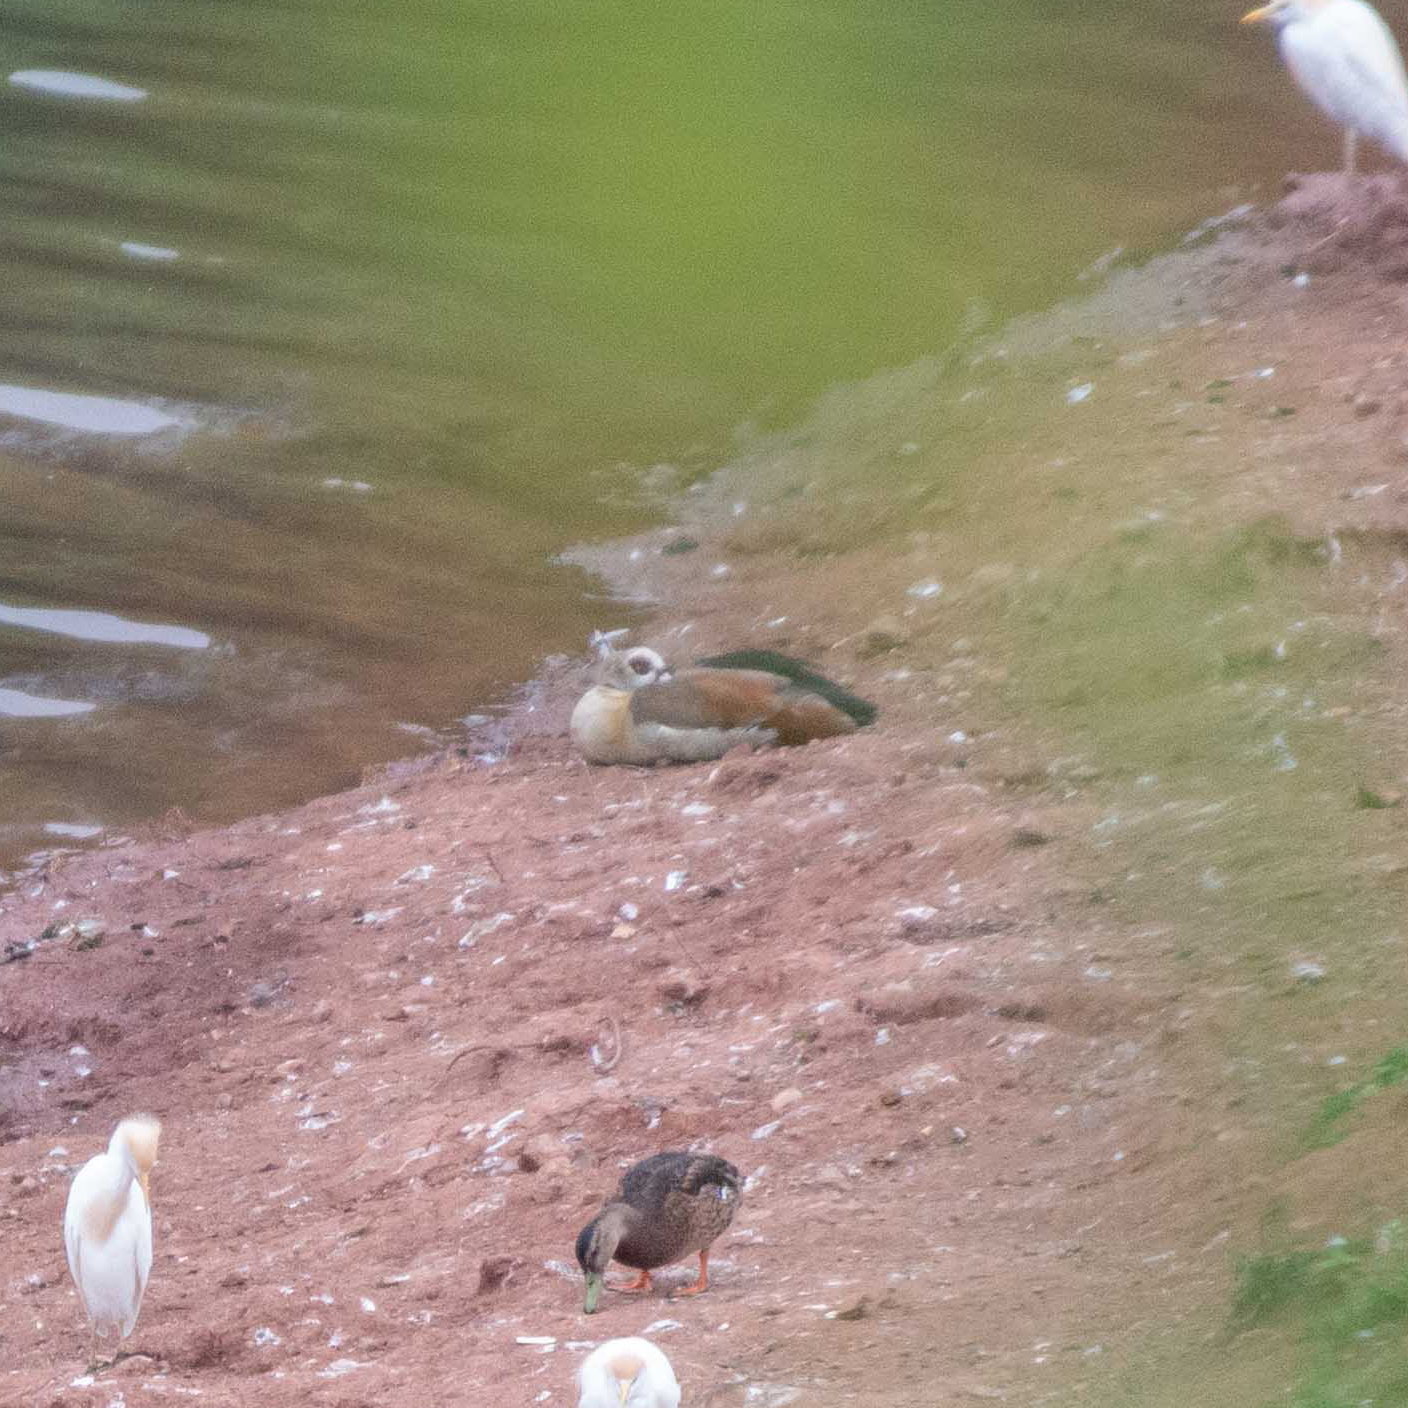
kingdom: Animalia
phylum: Chordata
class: Aves
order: Anseriformes
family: Anatidae
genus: Alopochen
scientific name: Alopochen aegyptiaca
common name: Egyptian goose
